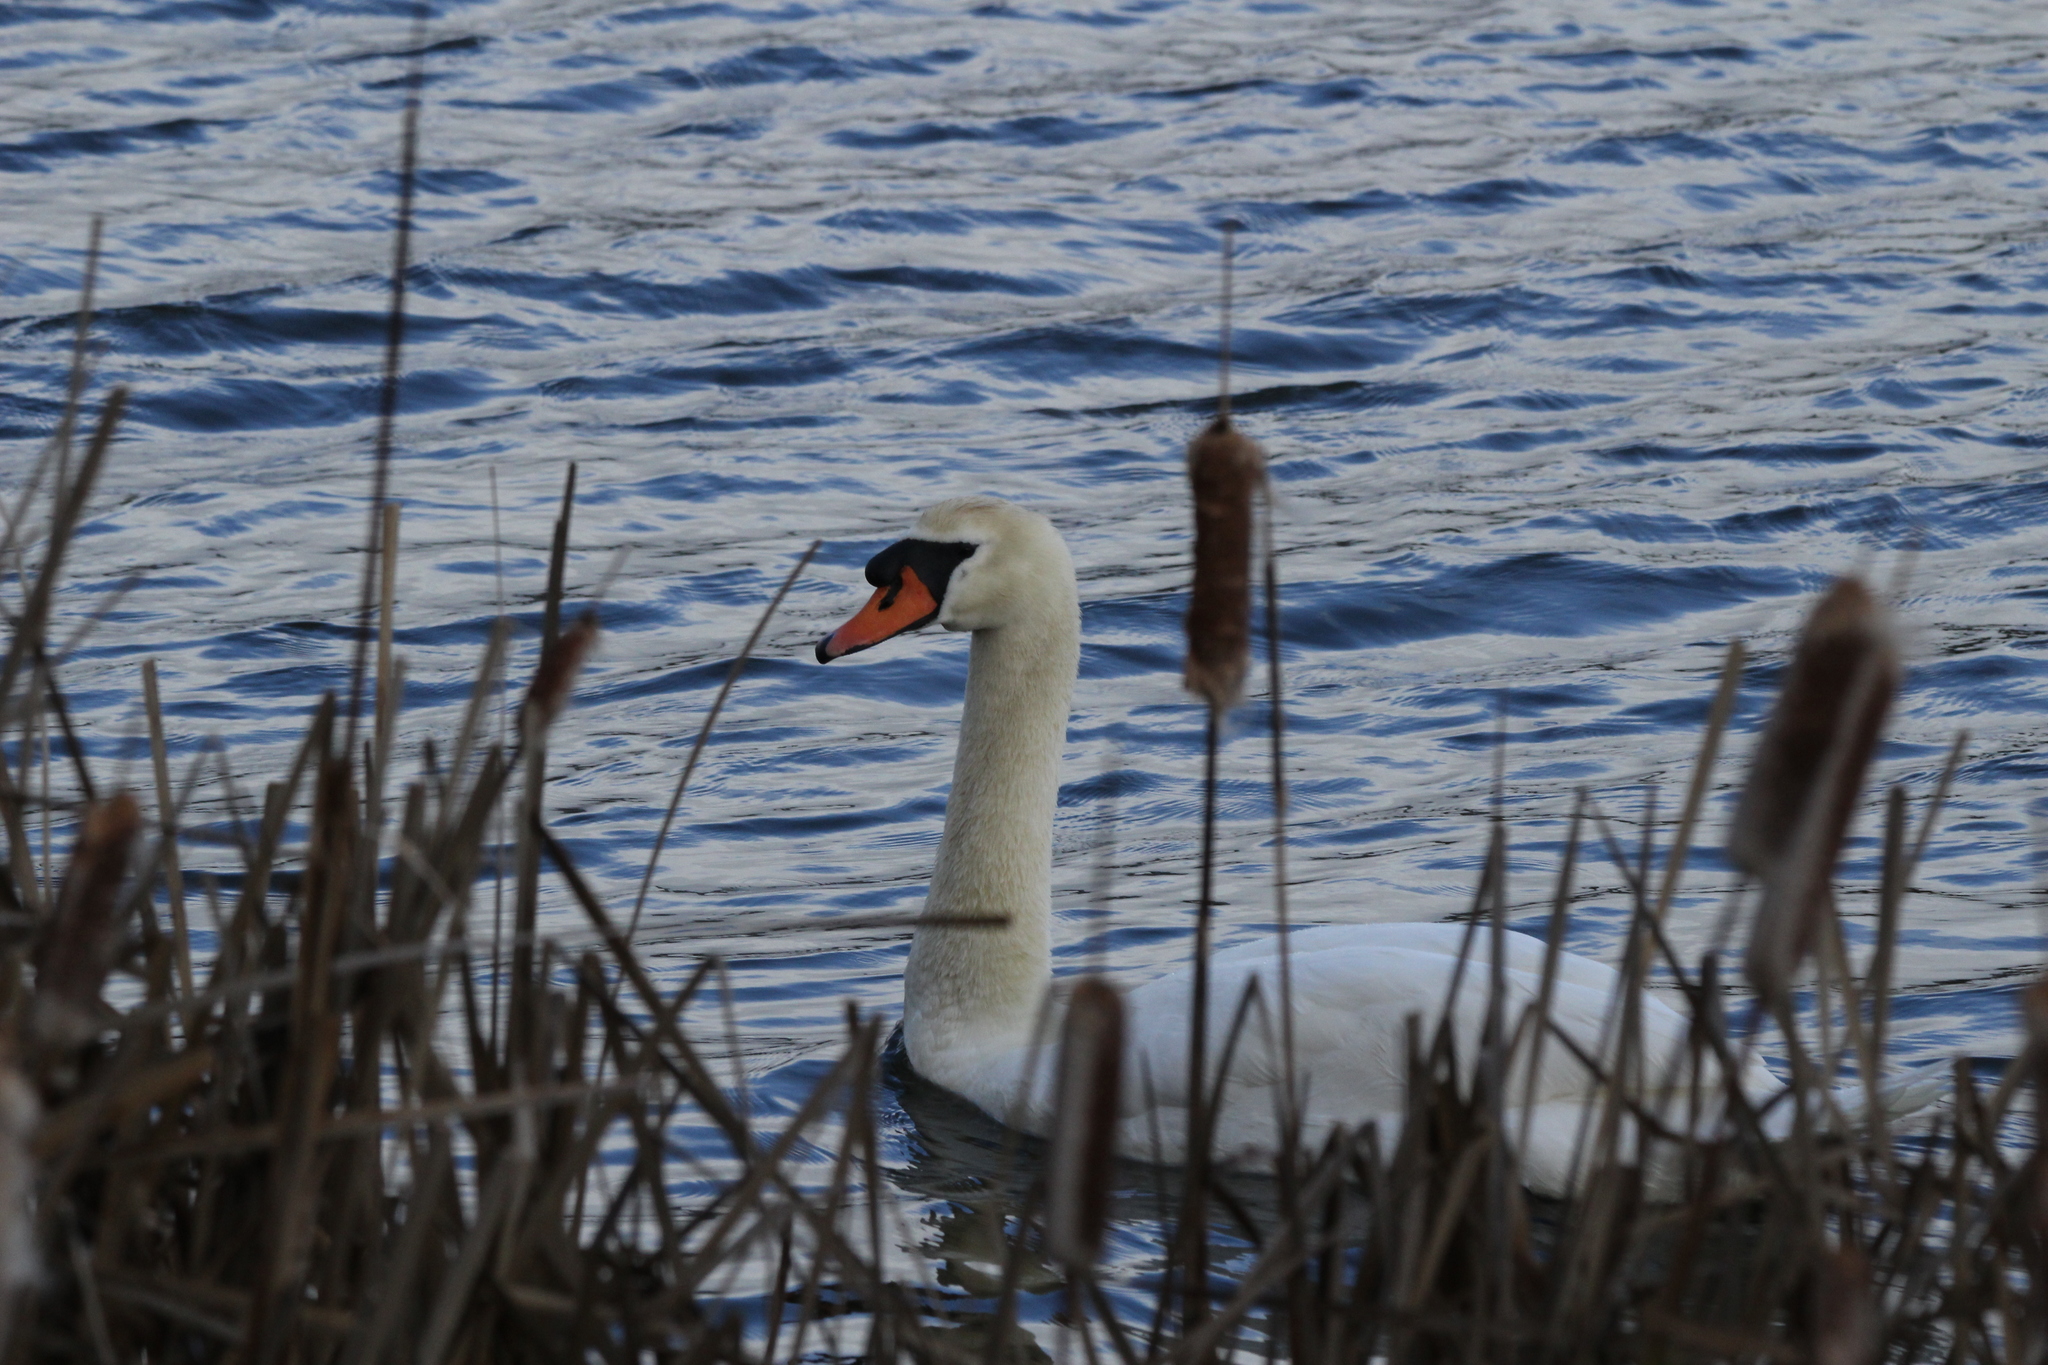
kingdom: Animalia
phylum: Chordata
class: Aves
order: Anseriformes
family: Anatidae
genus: Cygnus
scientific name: Cygnus olor
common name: Mute swan
